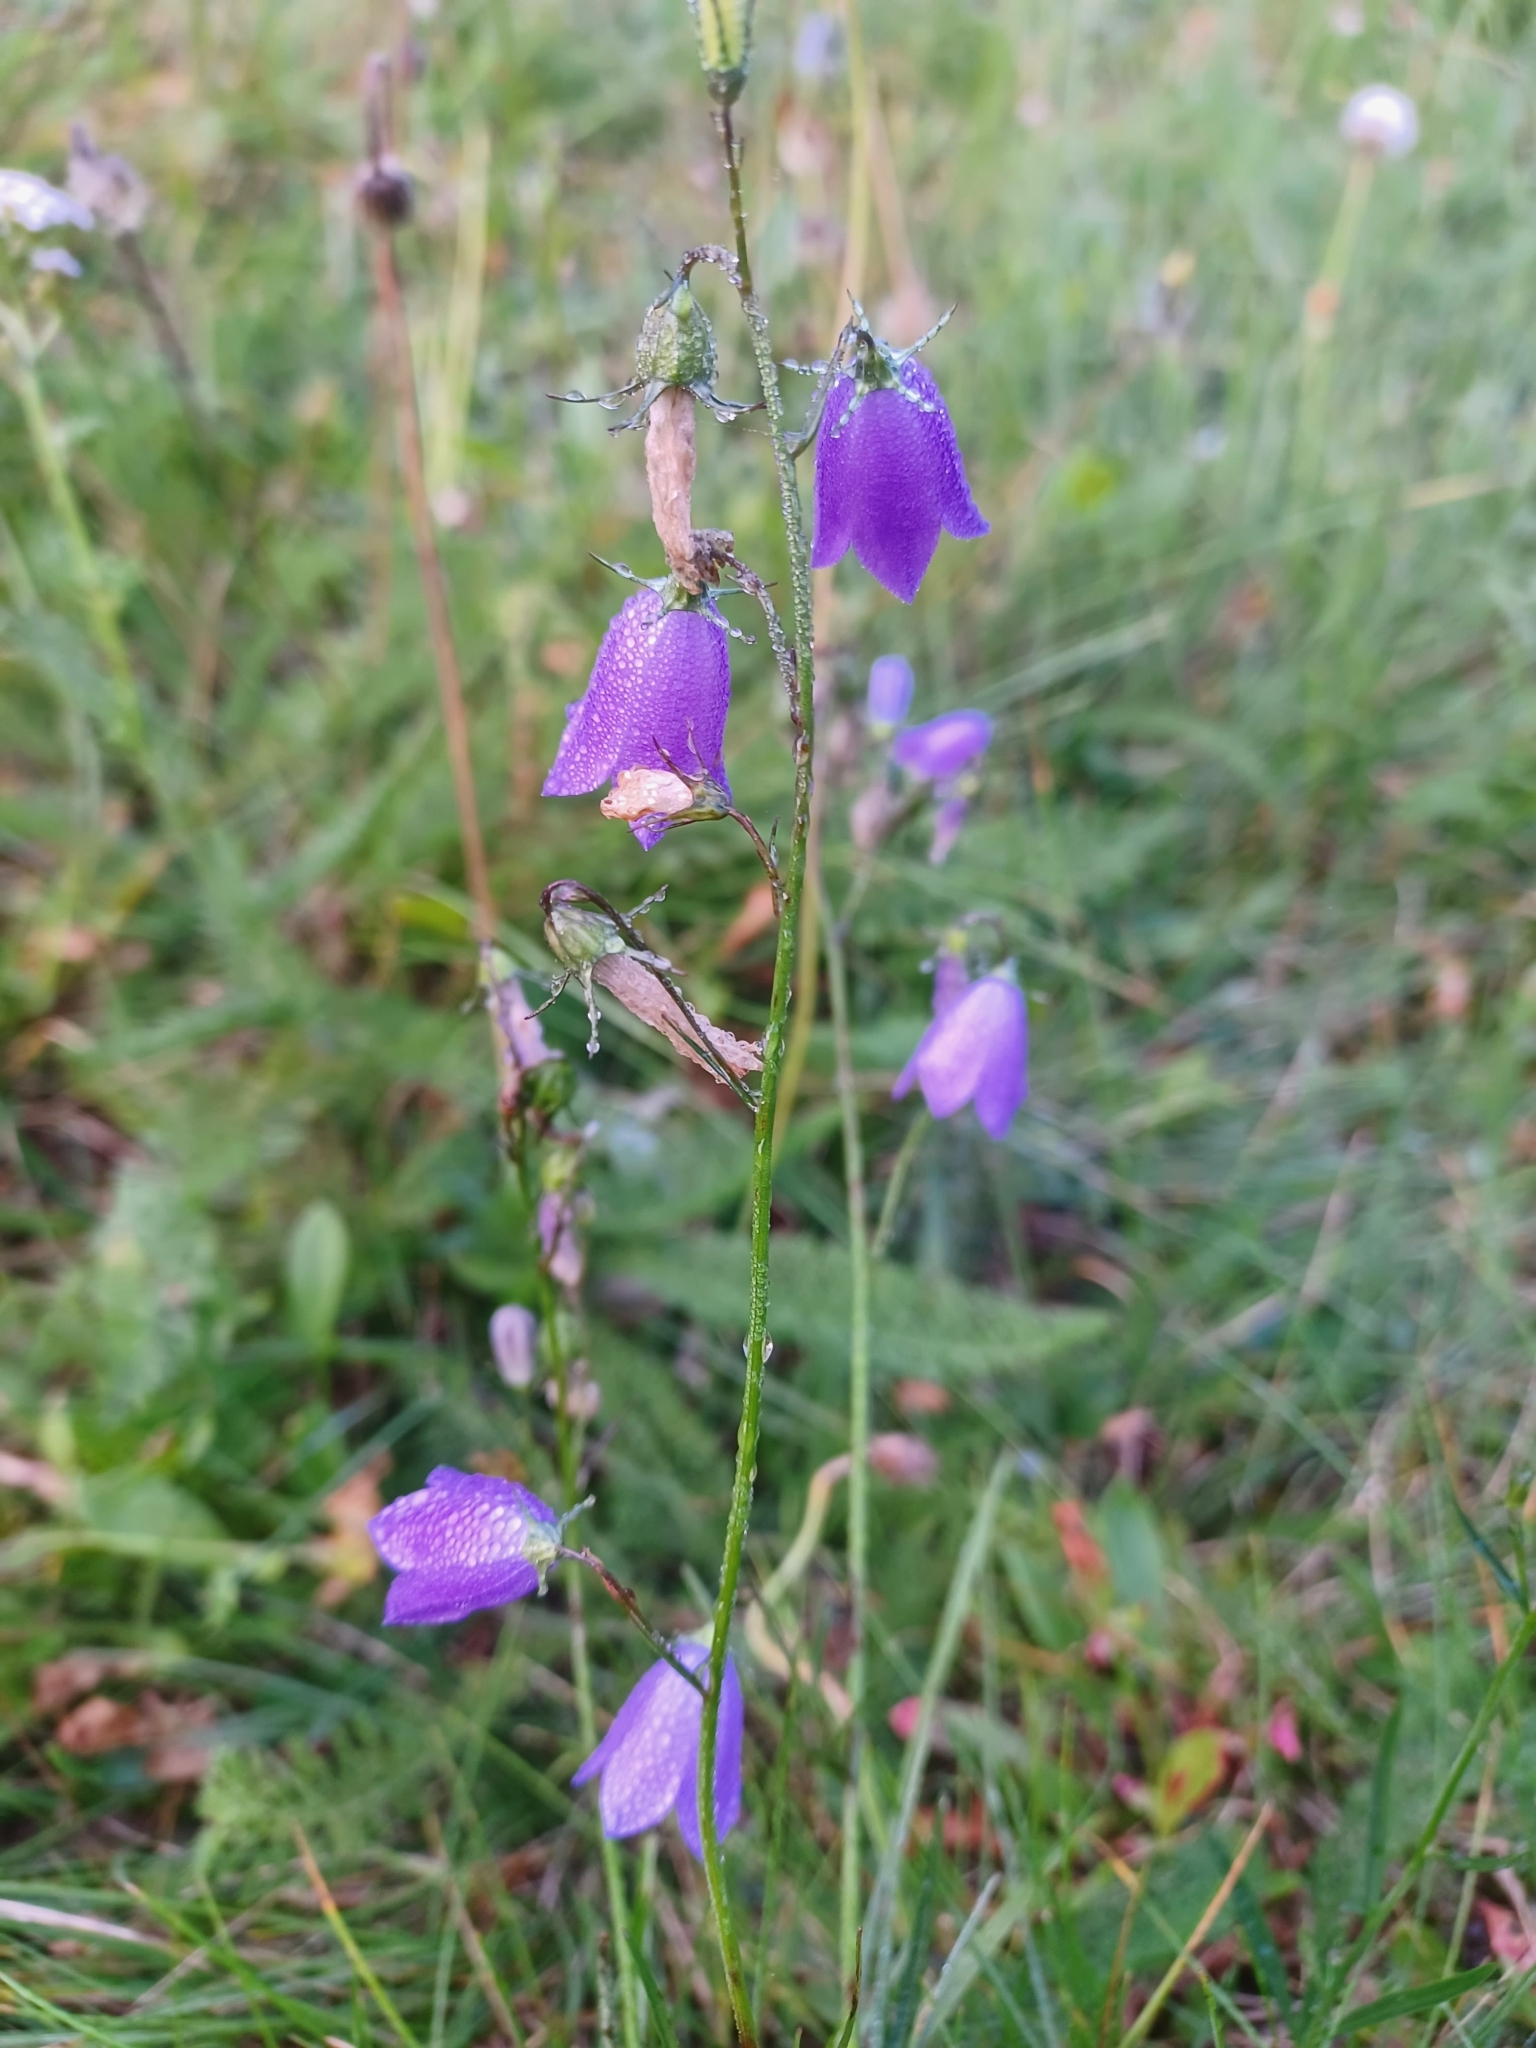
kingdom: Plantae
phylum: Tracheophyta
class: Magnoliopsida
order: Asterales
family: Campanulaceae
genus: Campanula
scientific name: Campanula rotundifolia
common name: Harebell
